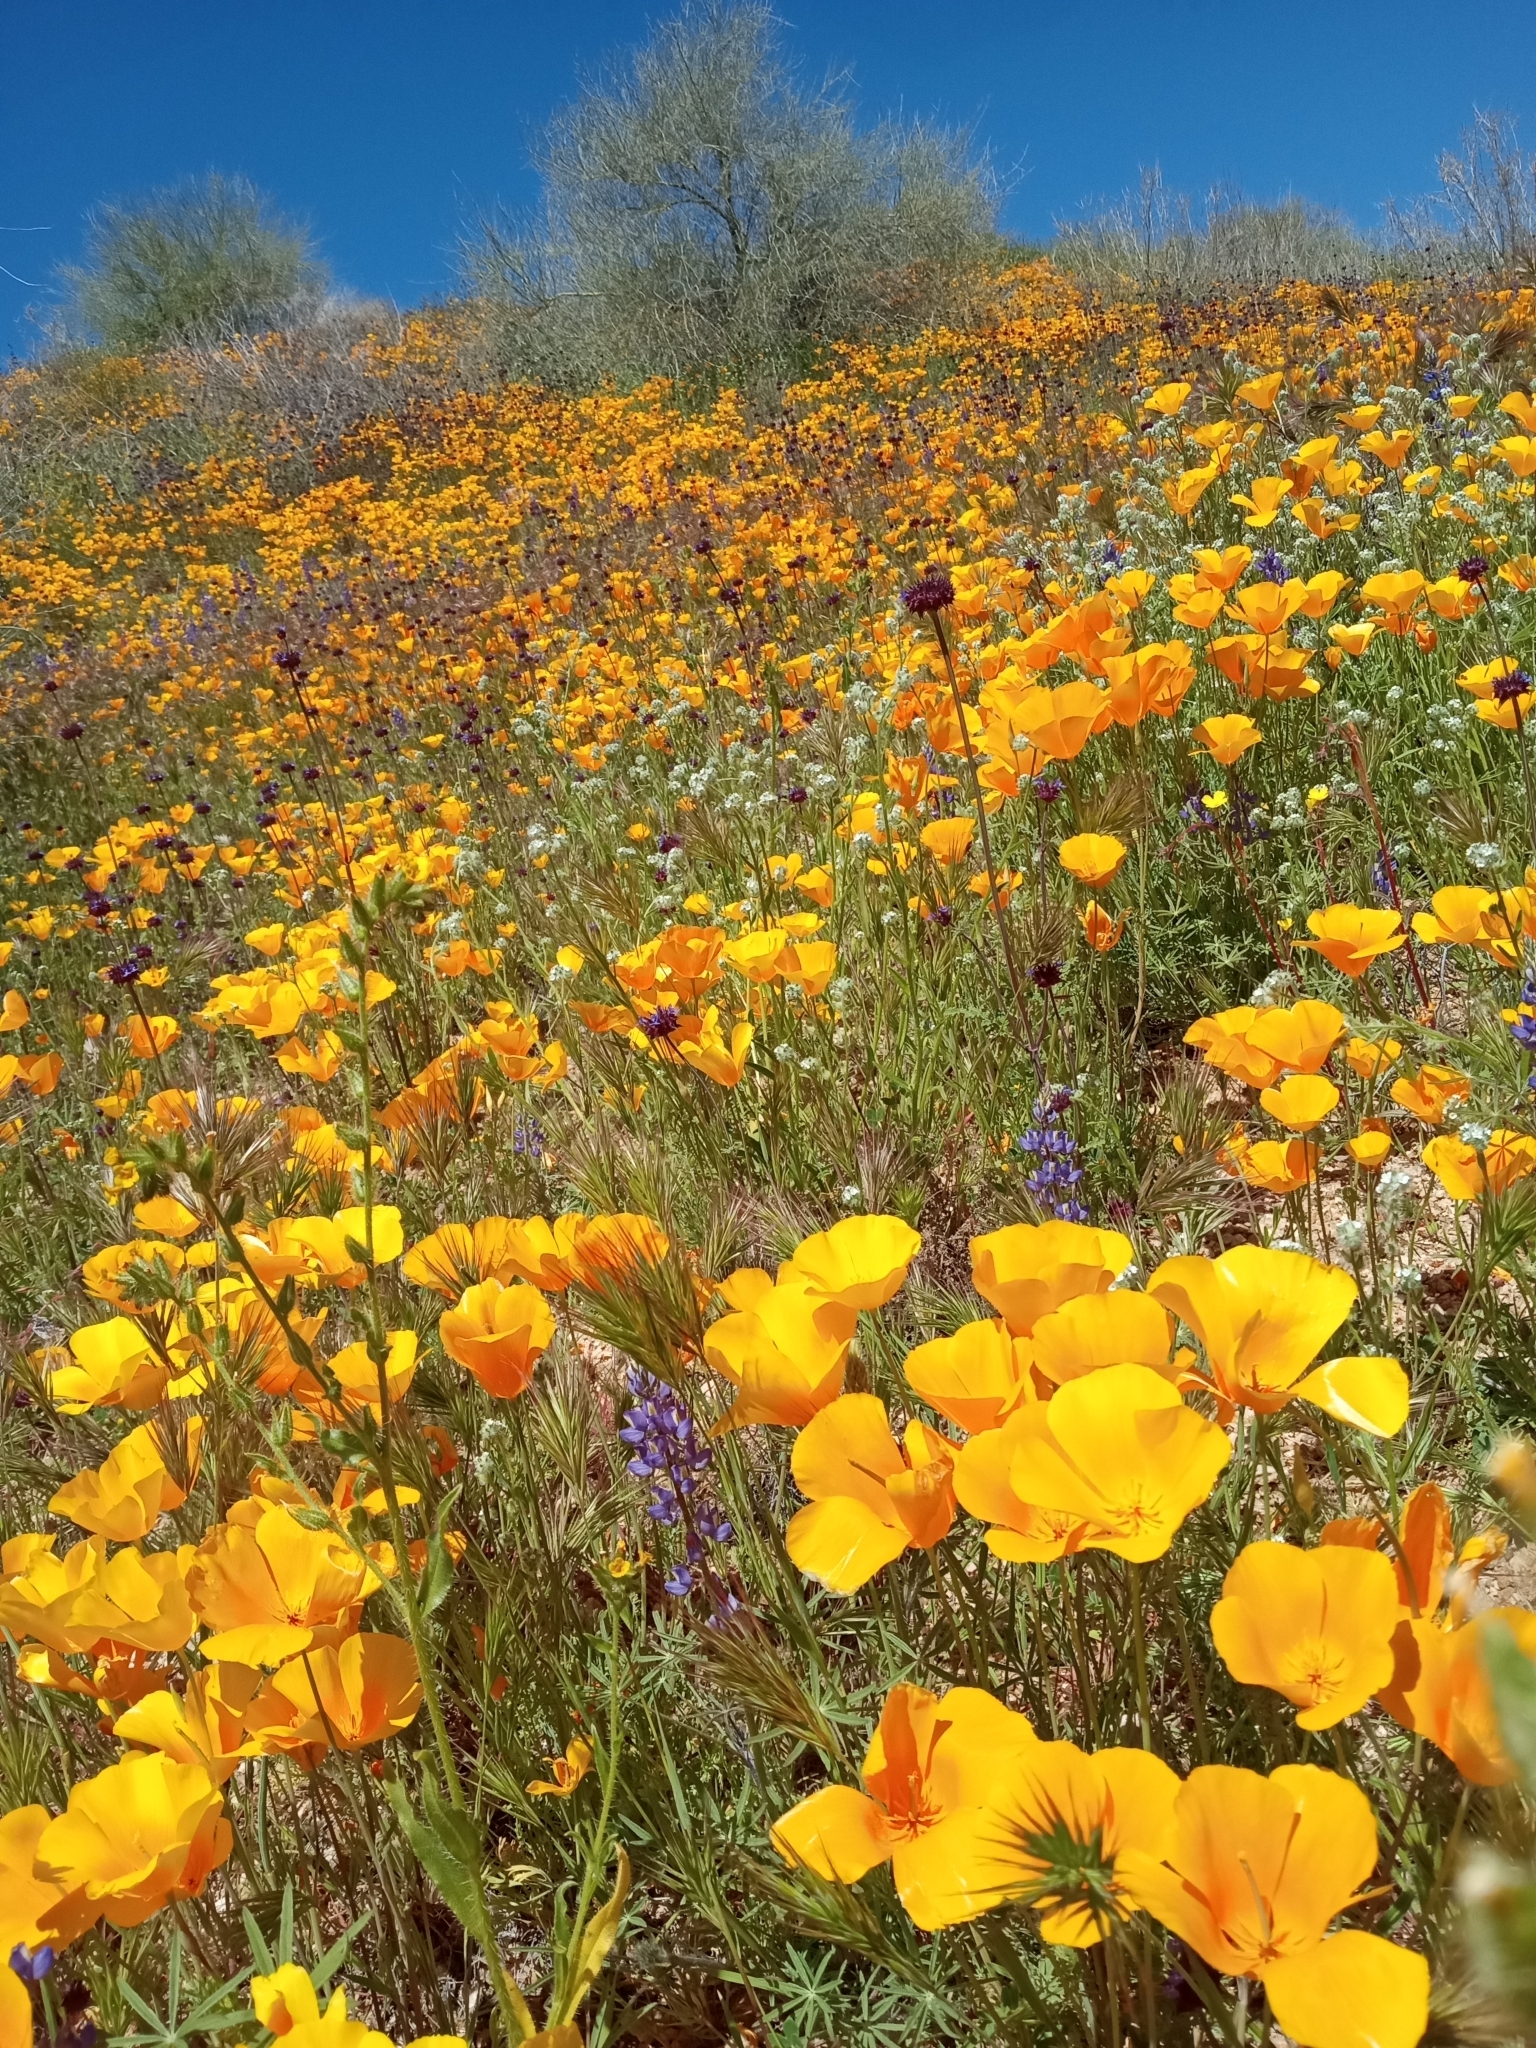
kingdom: Plantae
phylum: Tracheophyta
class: Magnoliopsida
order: Ranunculales
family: Papaveraceae
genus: Eschscholzia
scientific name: Eschscholzia californica
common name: California poppy
